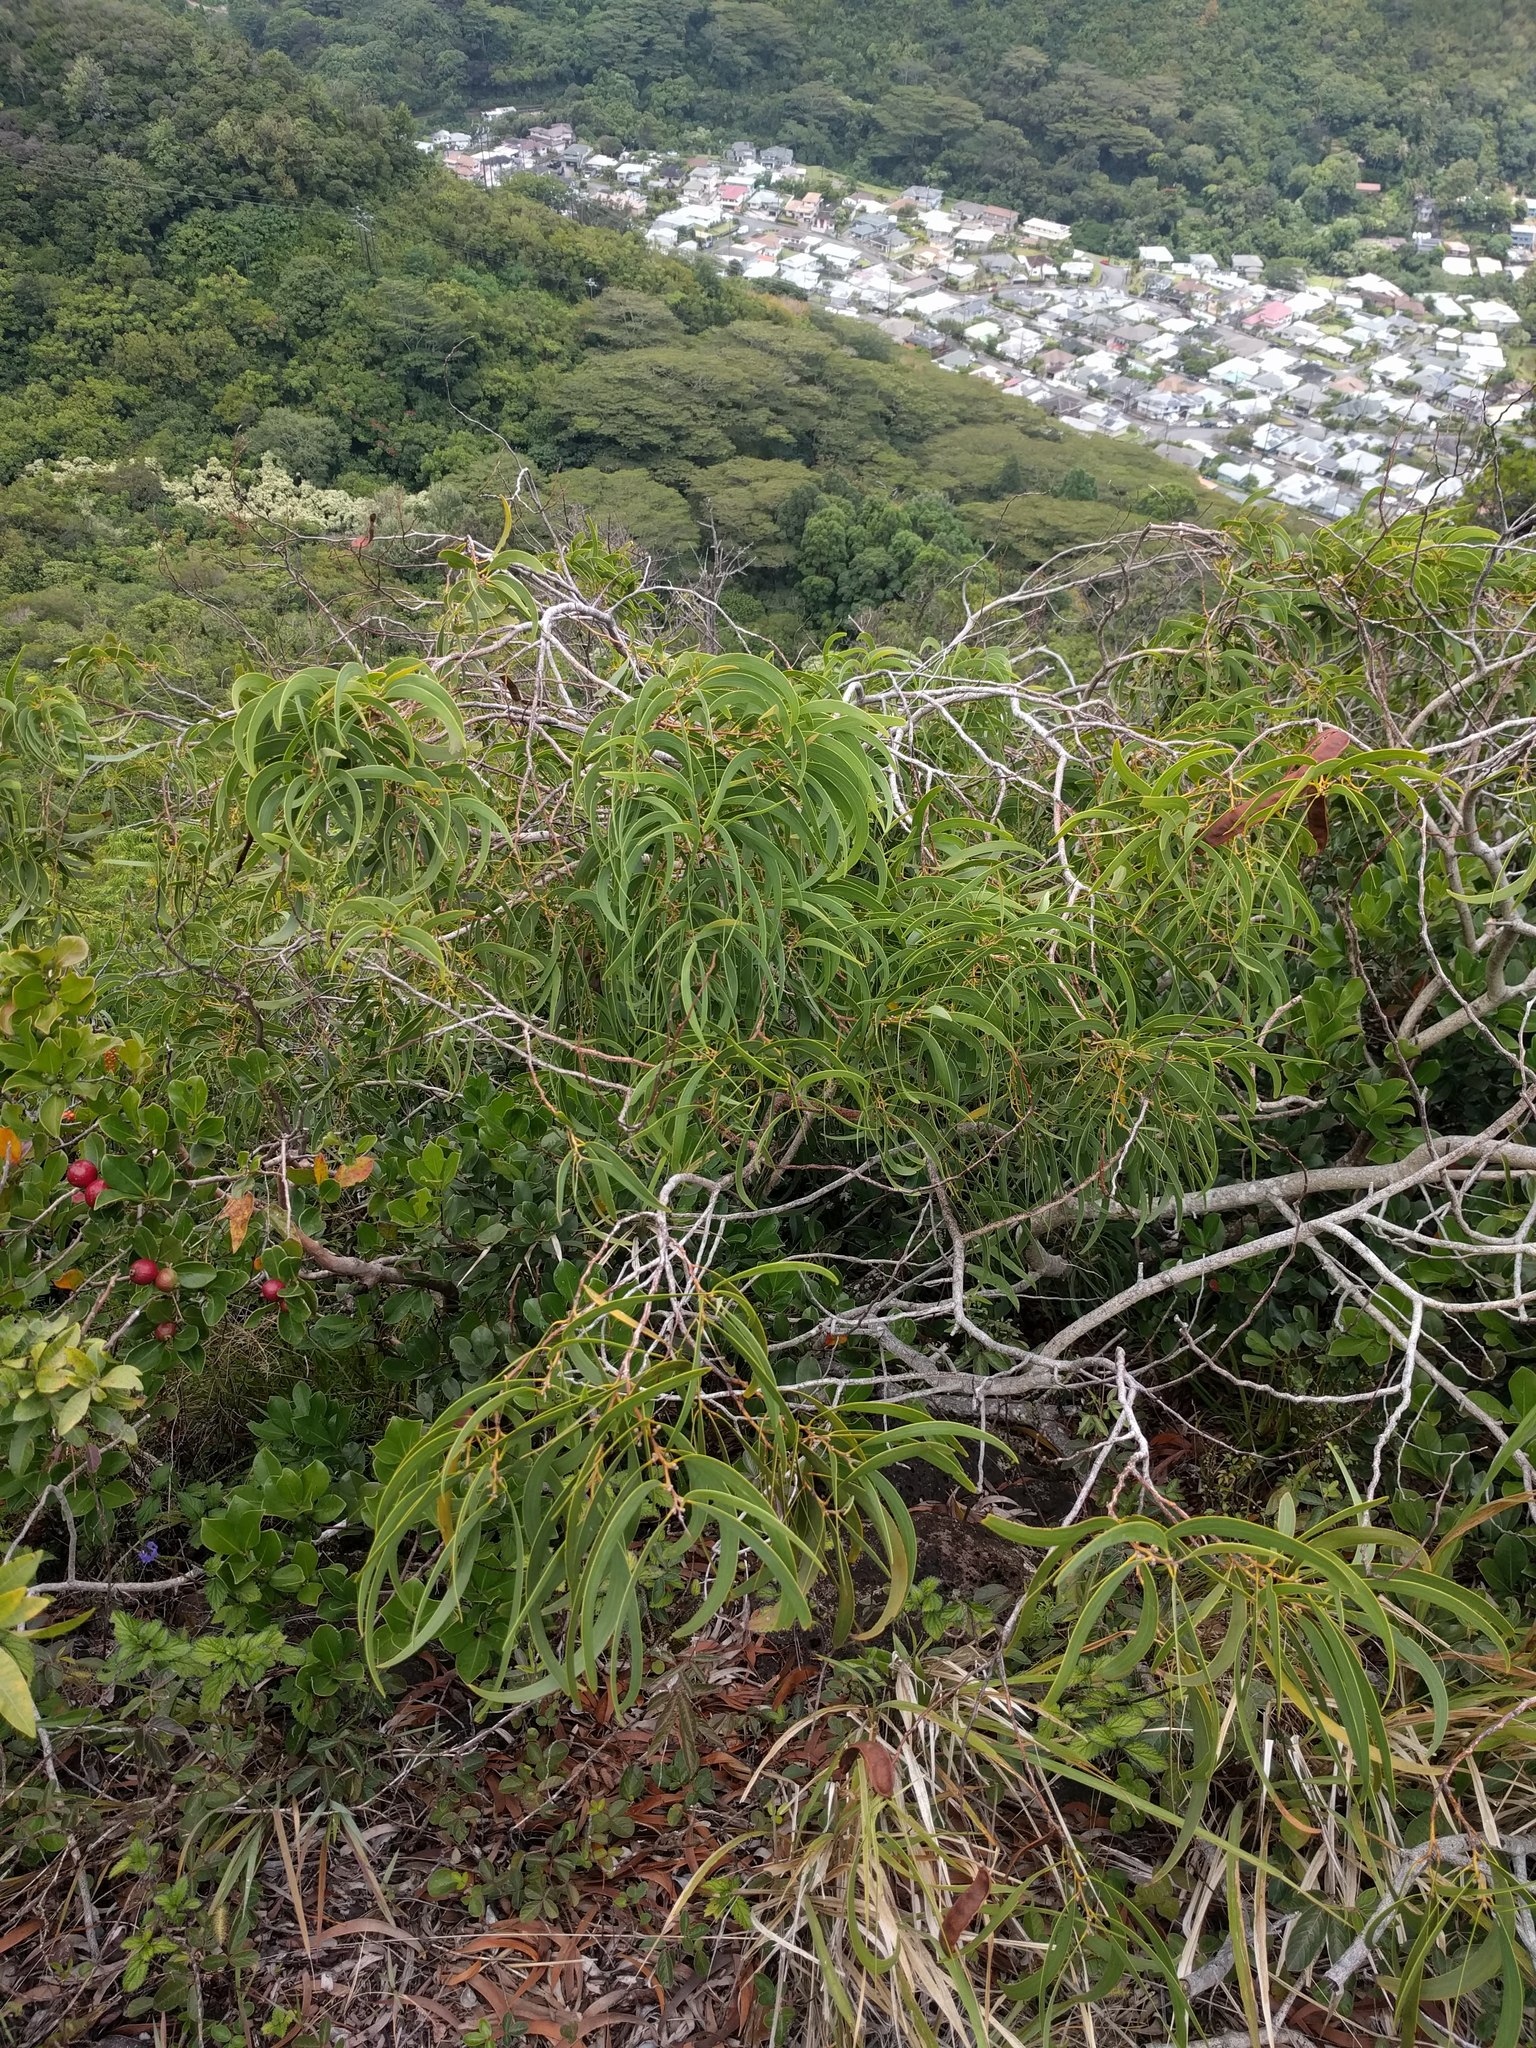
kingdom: Plantae
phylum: Tracheophyta
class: Magnoliopsida
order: Fabales
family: Fabaceae
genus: Acacia
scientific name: Acacia koa
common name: Gray koa
